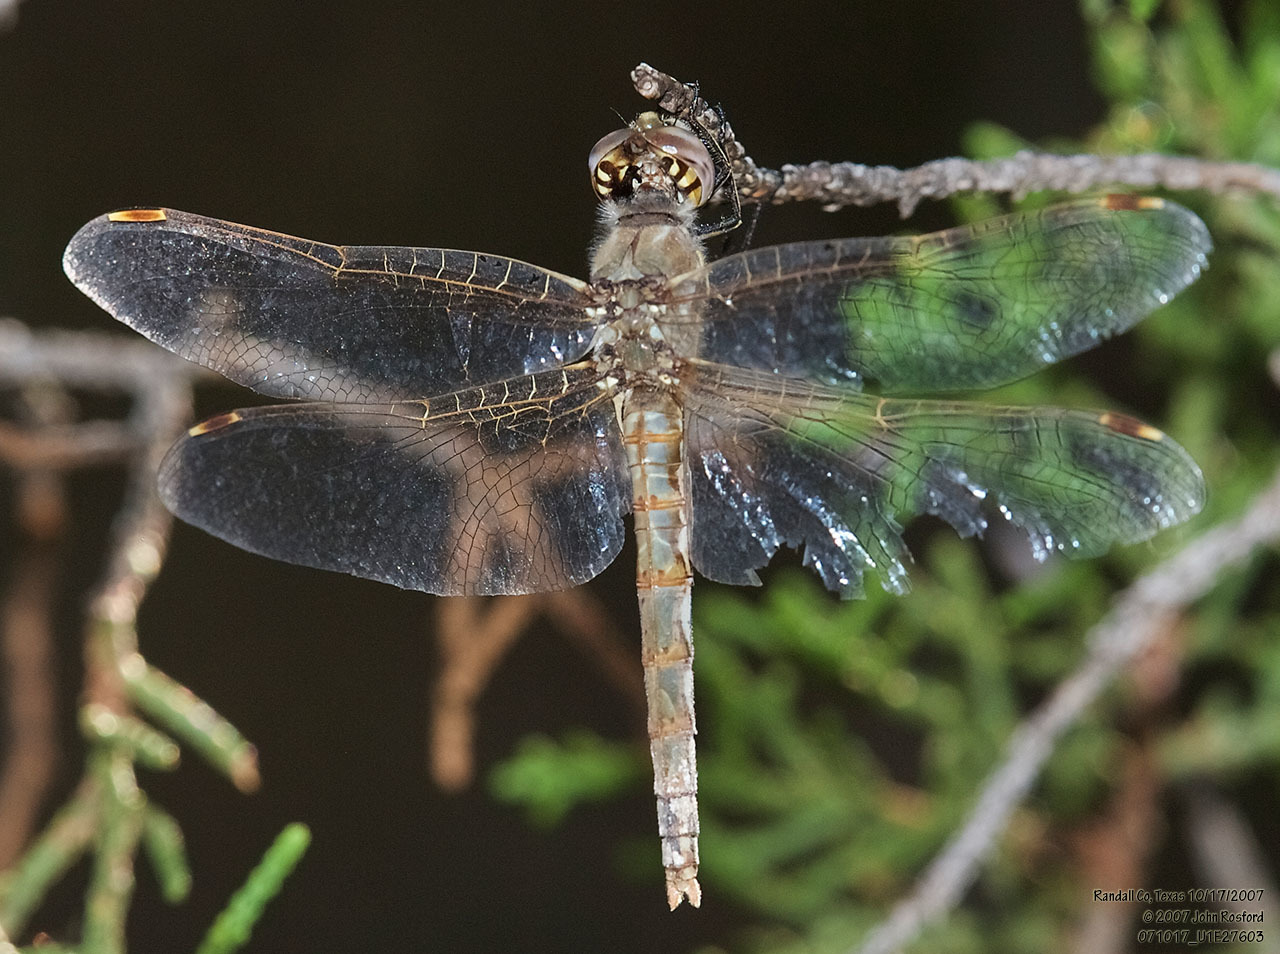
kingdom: Animalia
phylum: Arthropoda
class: Insecta
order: Odonata
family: Libellulidae
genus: Sympetrum
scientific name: Sympetrum corruptum
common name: Variegated meadowhawk
